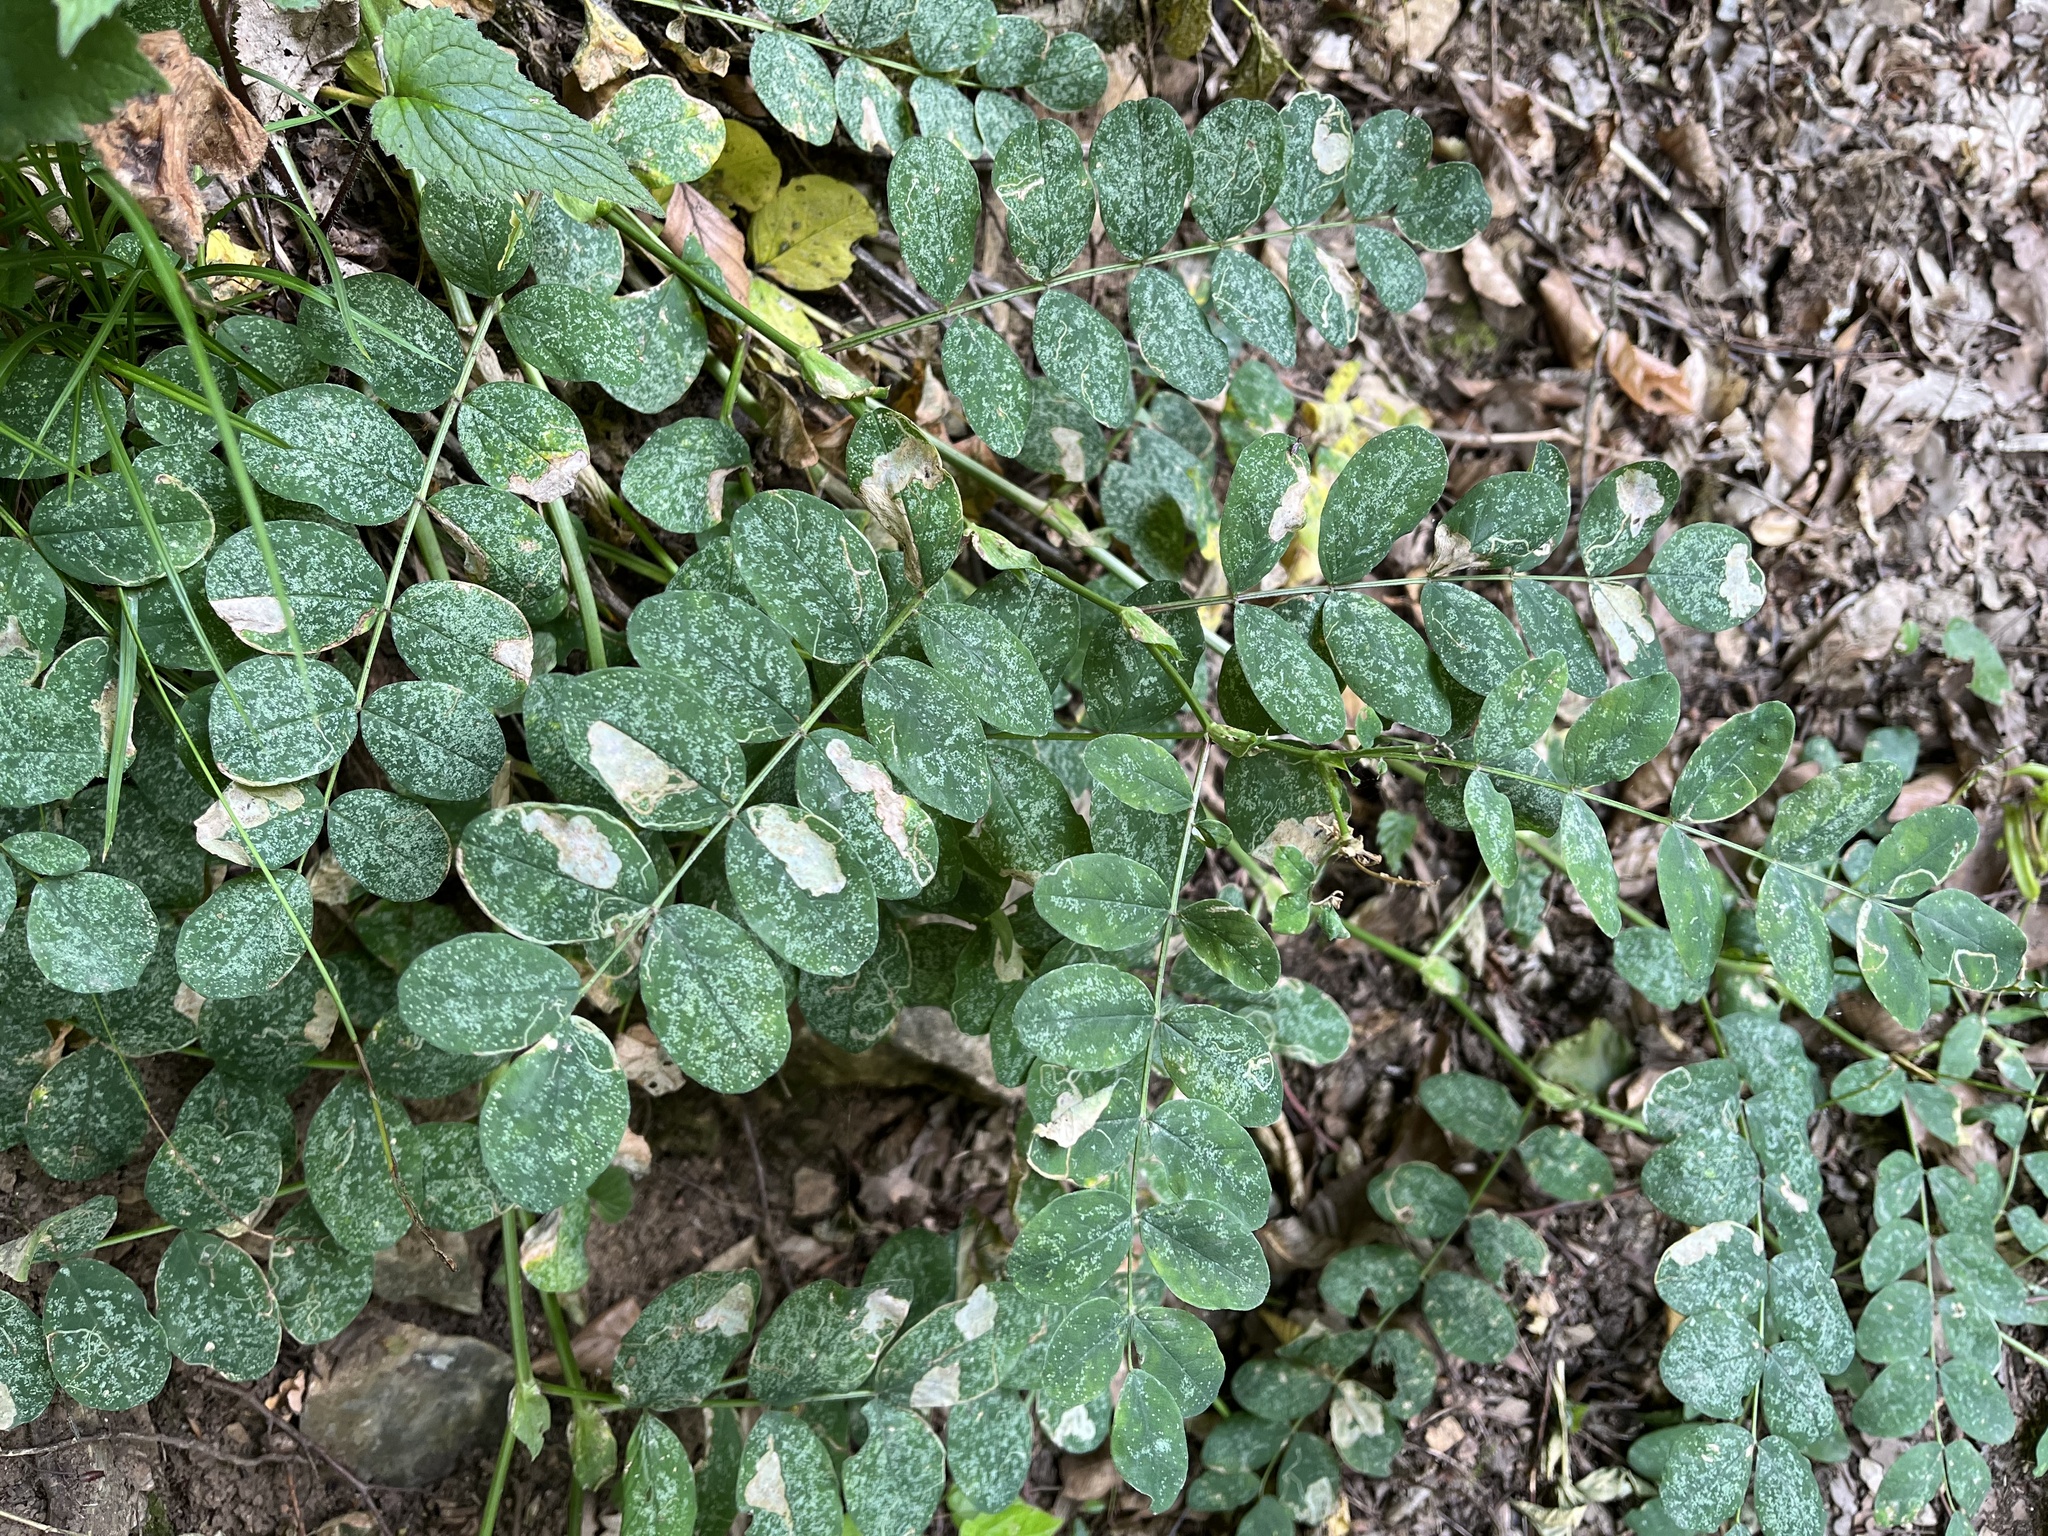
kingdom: Plantae
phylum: Tracheophyta
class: Magnoliopsida
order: Fabales
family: Fabaceae
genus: Astragalus
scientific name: Astragalus glycyphyllos
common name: Wild liquorice
